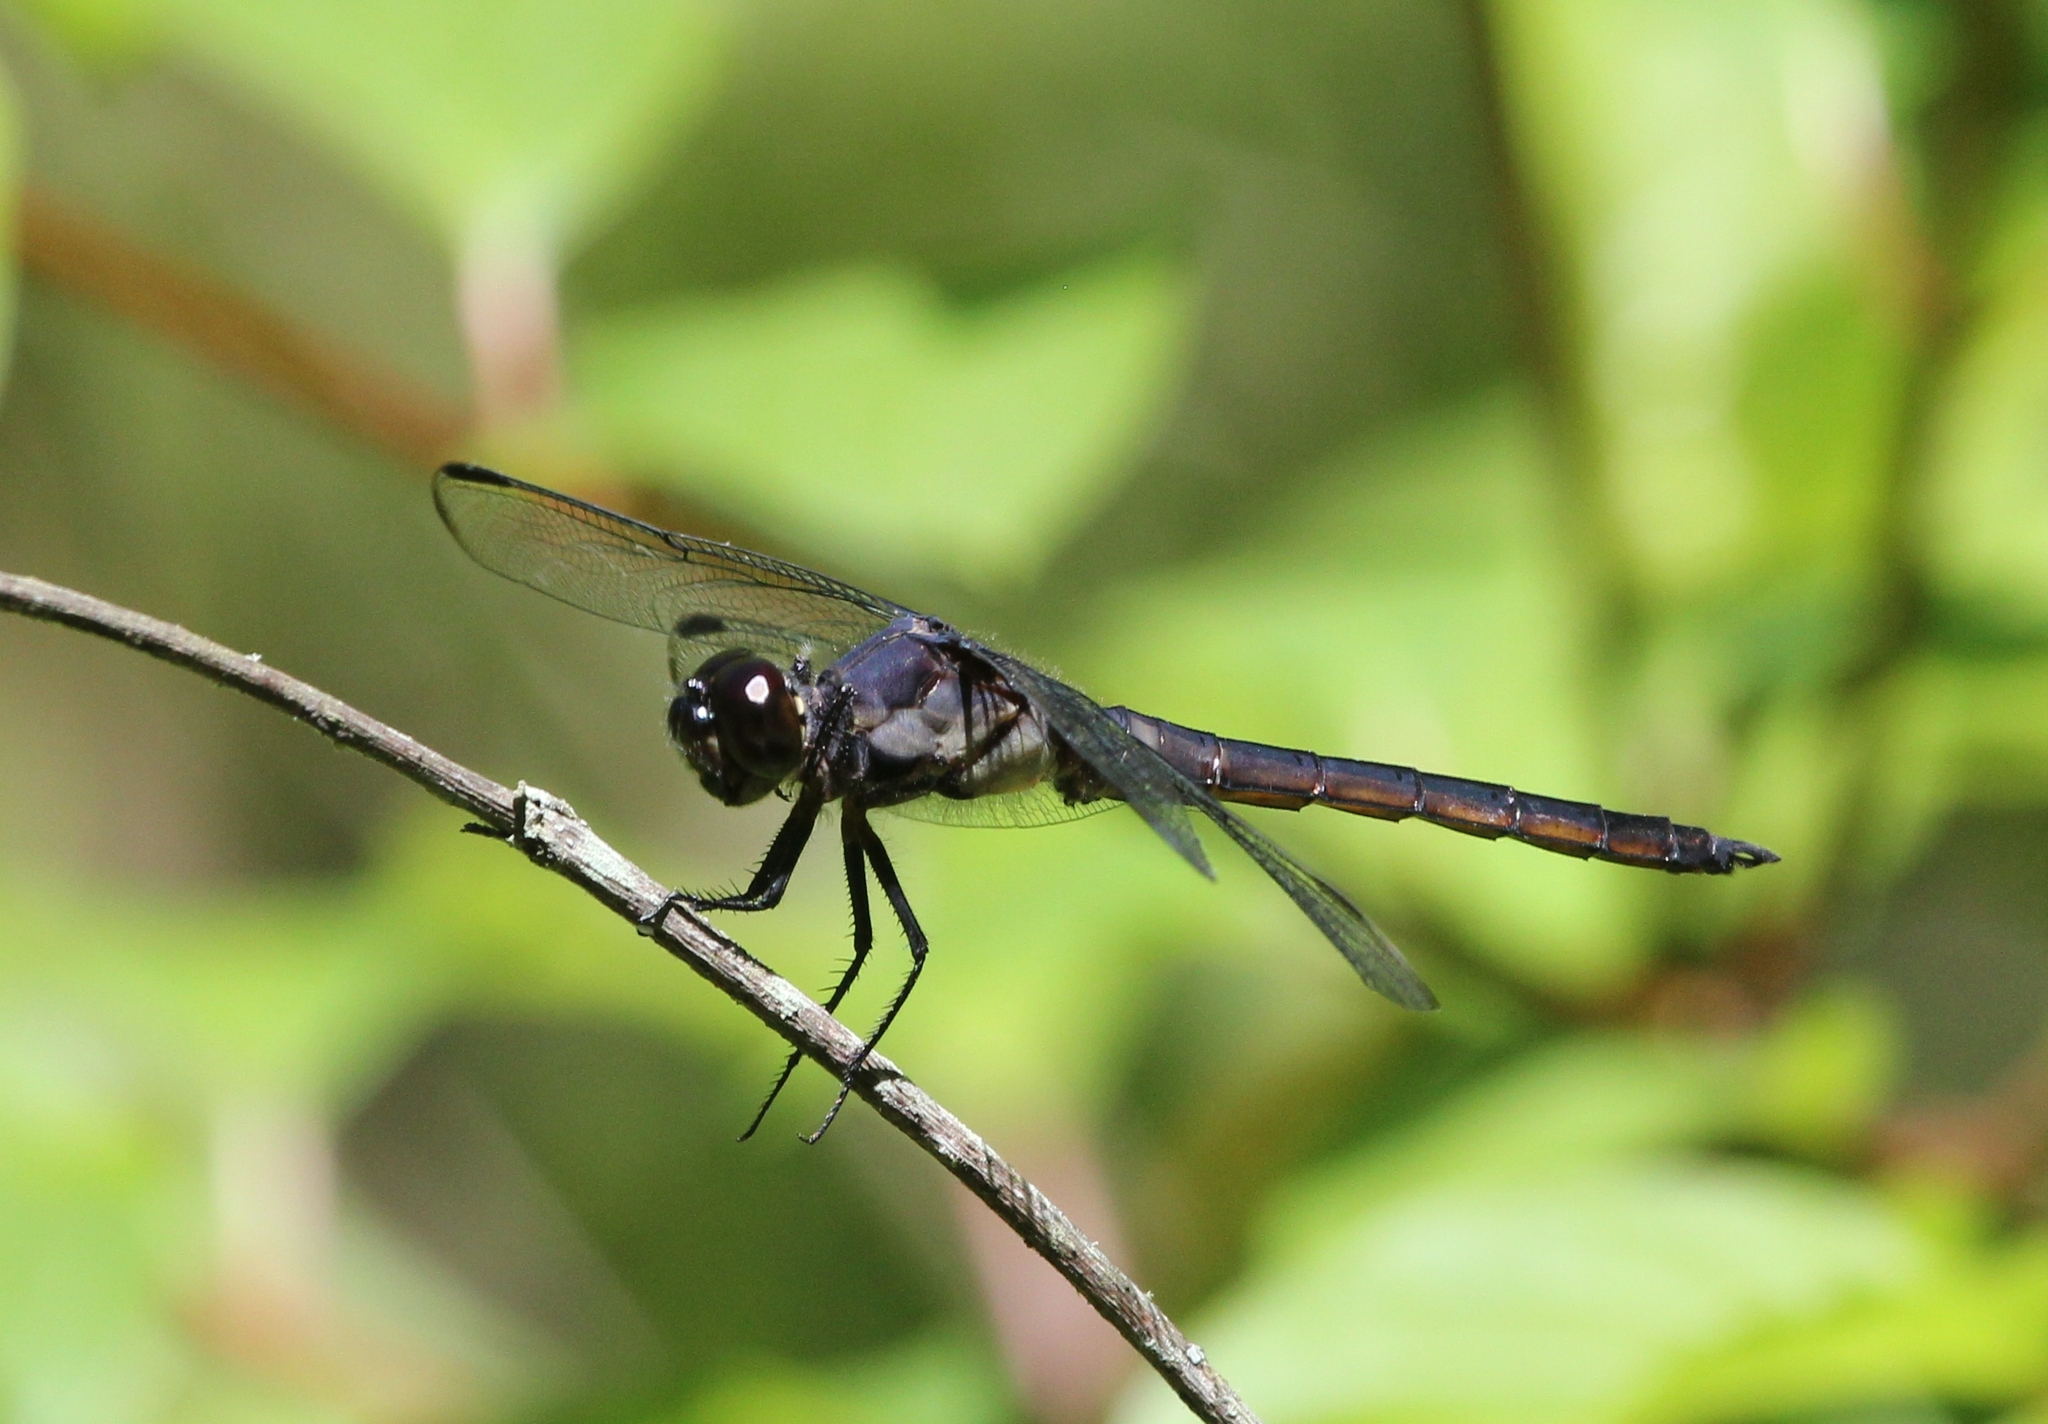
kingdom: Animalia
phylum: Arthropoda
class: Insecta
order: Odonata
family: Libellulidae
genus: Libellula
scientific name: Libellula incesta
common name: Slaty skimmer
